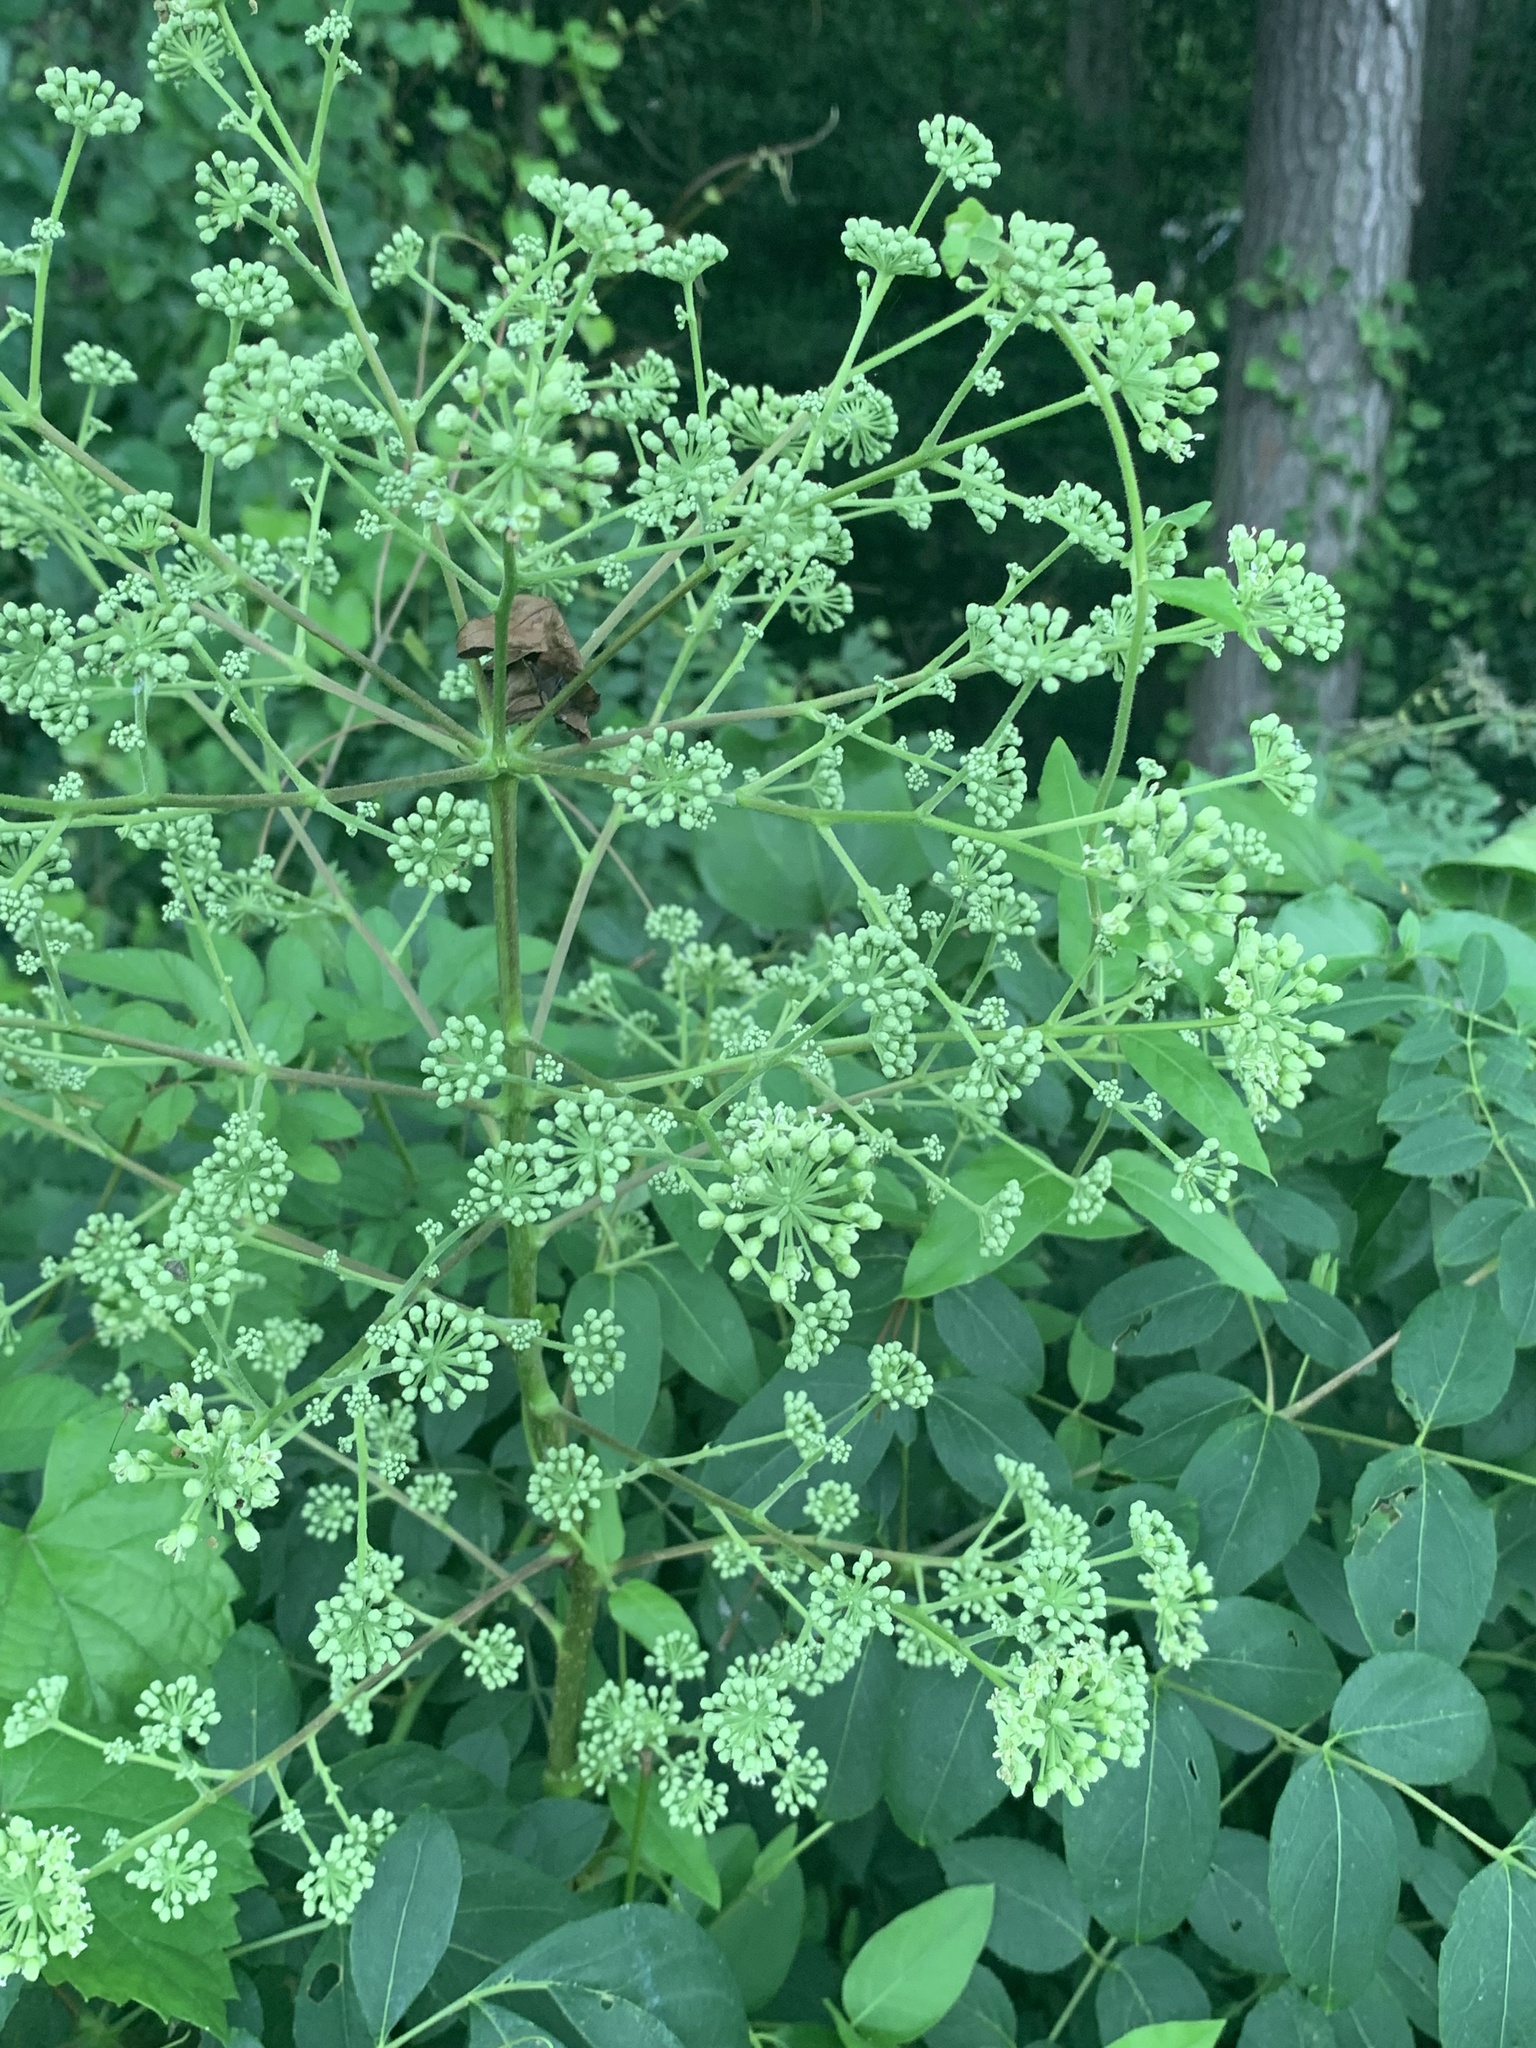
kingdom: Plantae
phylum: Tracheophyta
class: Magnoliopsida
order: Apiales
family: Araliaceae
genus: Aralia
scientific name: Aralia spinosa
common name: Hercules'-club
